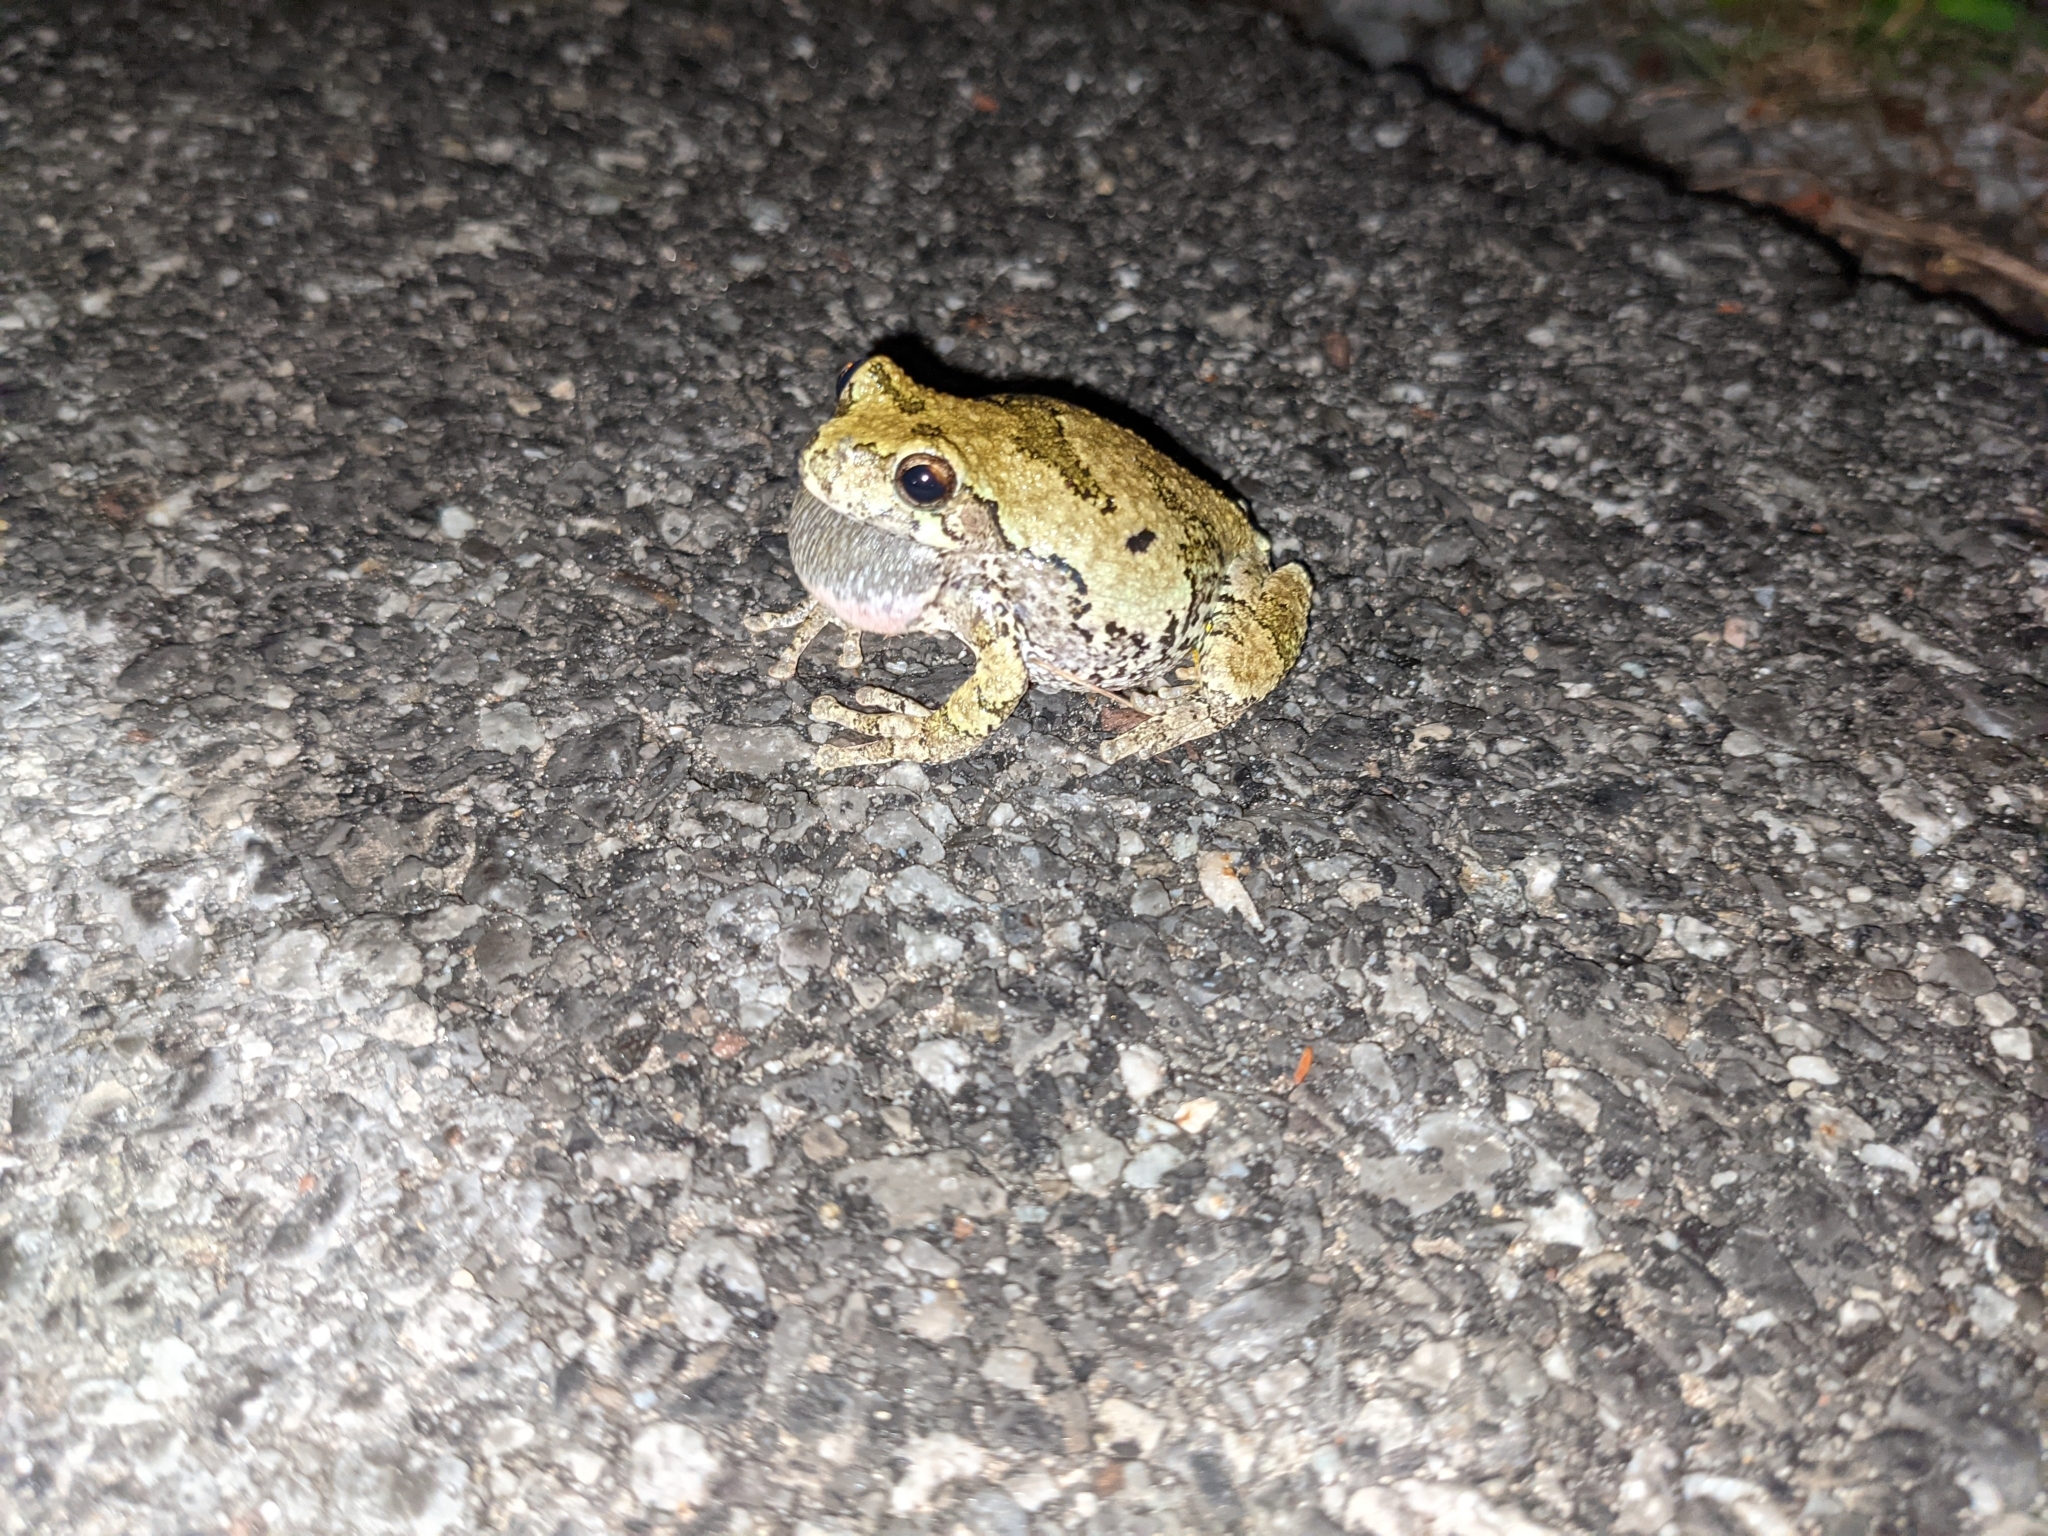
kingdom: Animalia
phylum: Chordata
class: Amphibia
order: Anura
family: Hylidae
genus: Dryophytes
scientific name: Dryophytes versicolor
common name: Gray treefrog
